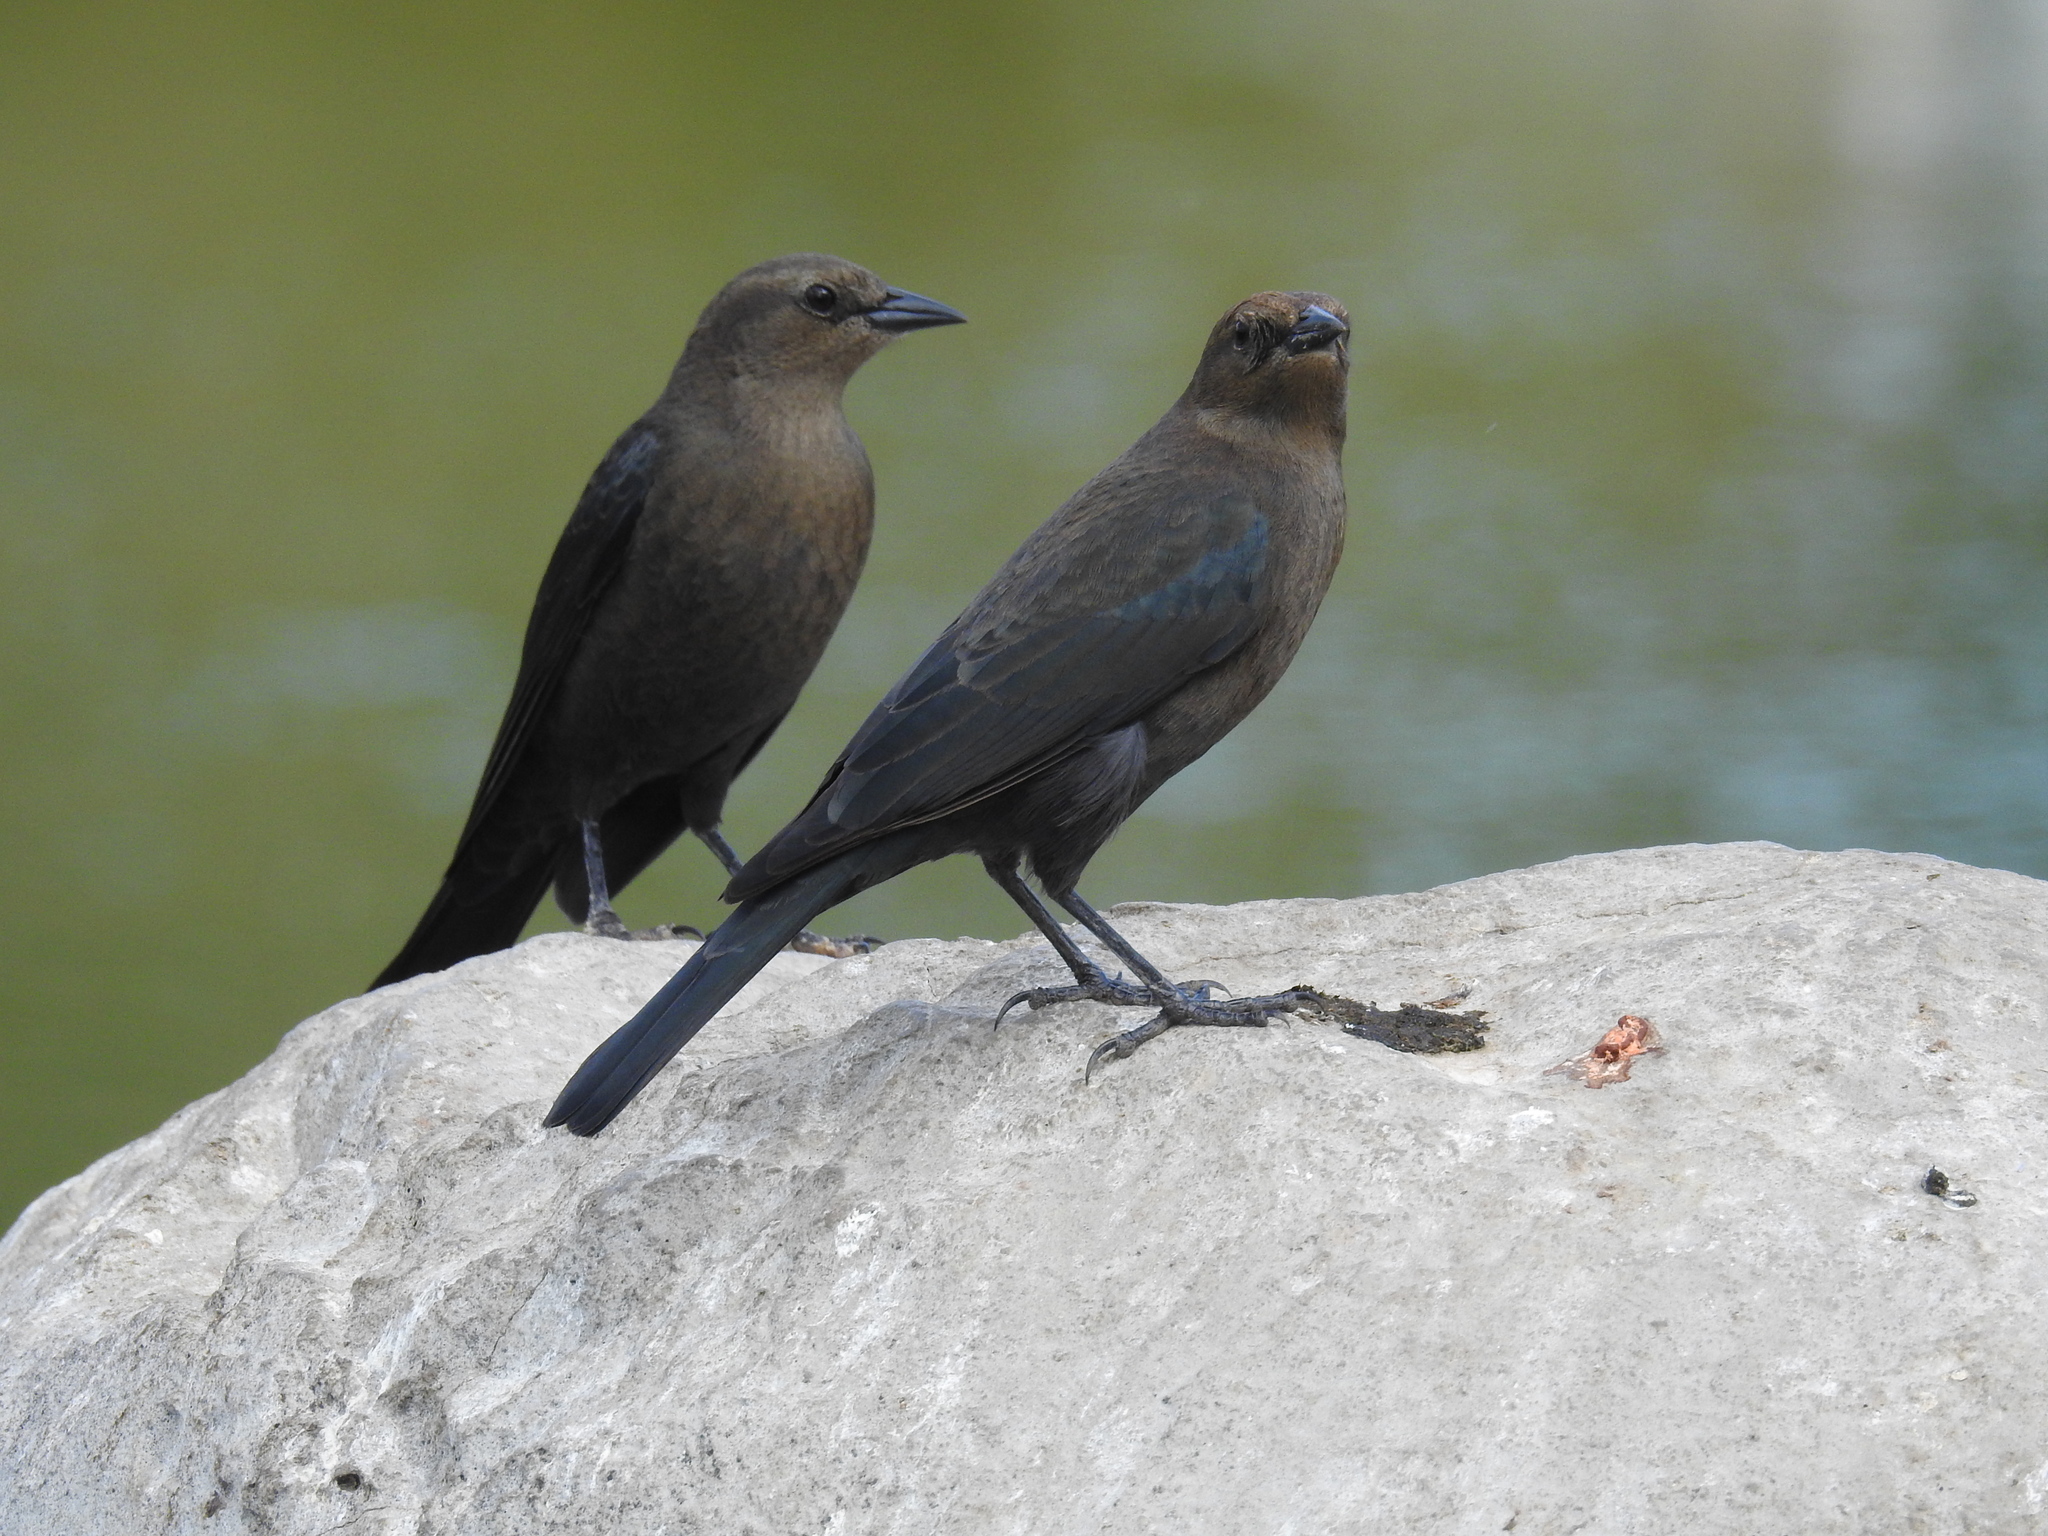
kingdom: Animalia
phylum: Chordata
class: Aves
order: Passeriformes
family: Icteridae
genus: Euphagus
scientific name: Euphagus cyanocephalus
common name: Brewer's blackbird
